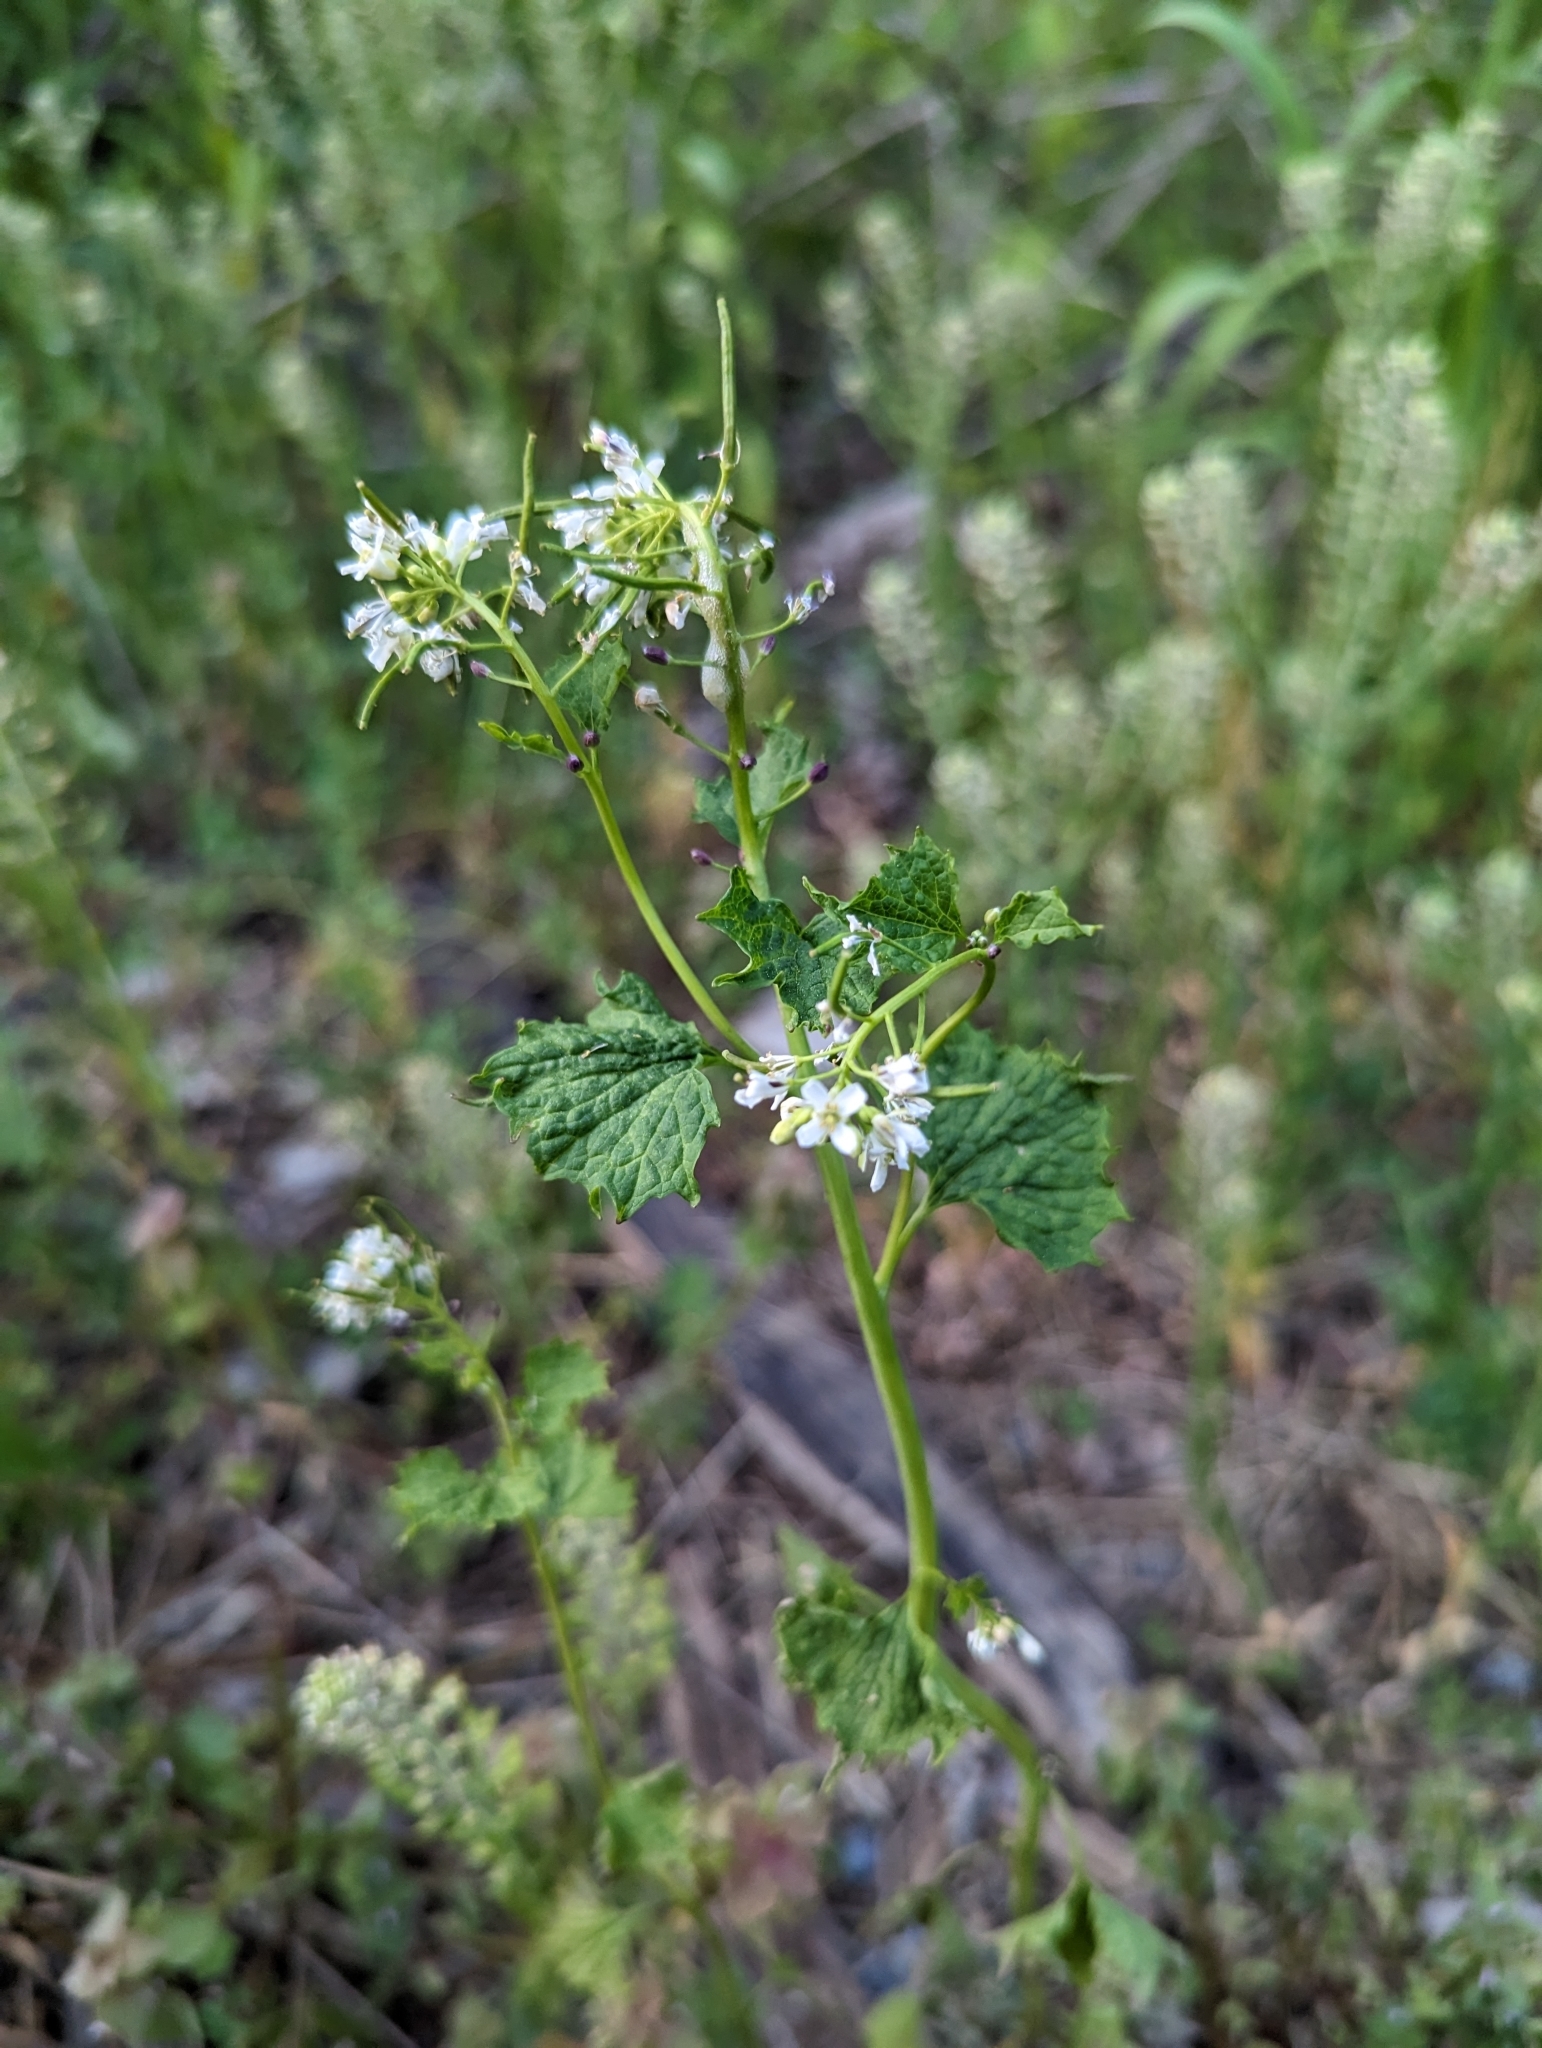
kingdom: Plantae
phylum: Tracheophyta
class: Magnoliopsida
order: Brassicales
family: Brassicaceae
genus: Alliaria
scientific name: Alliaria petiolata
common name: Garlic mustard
